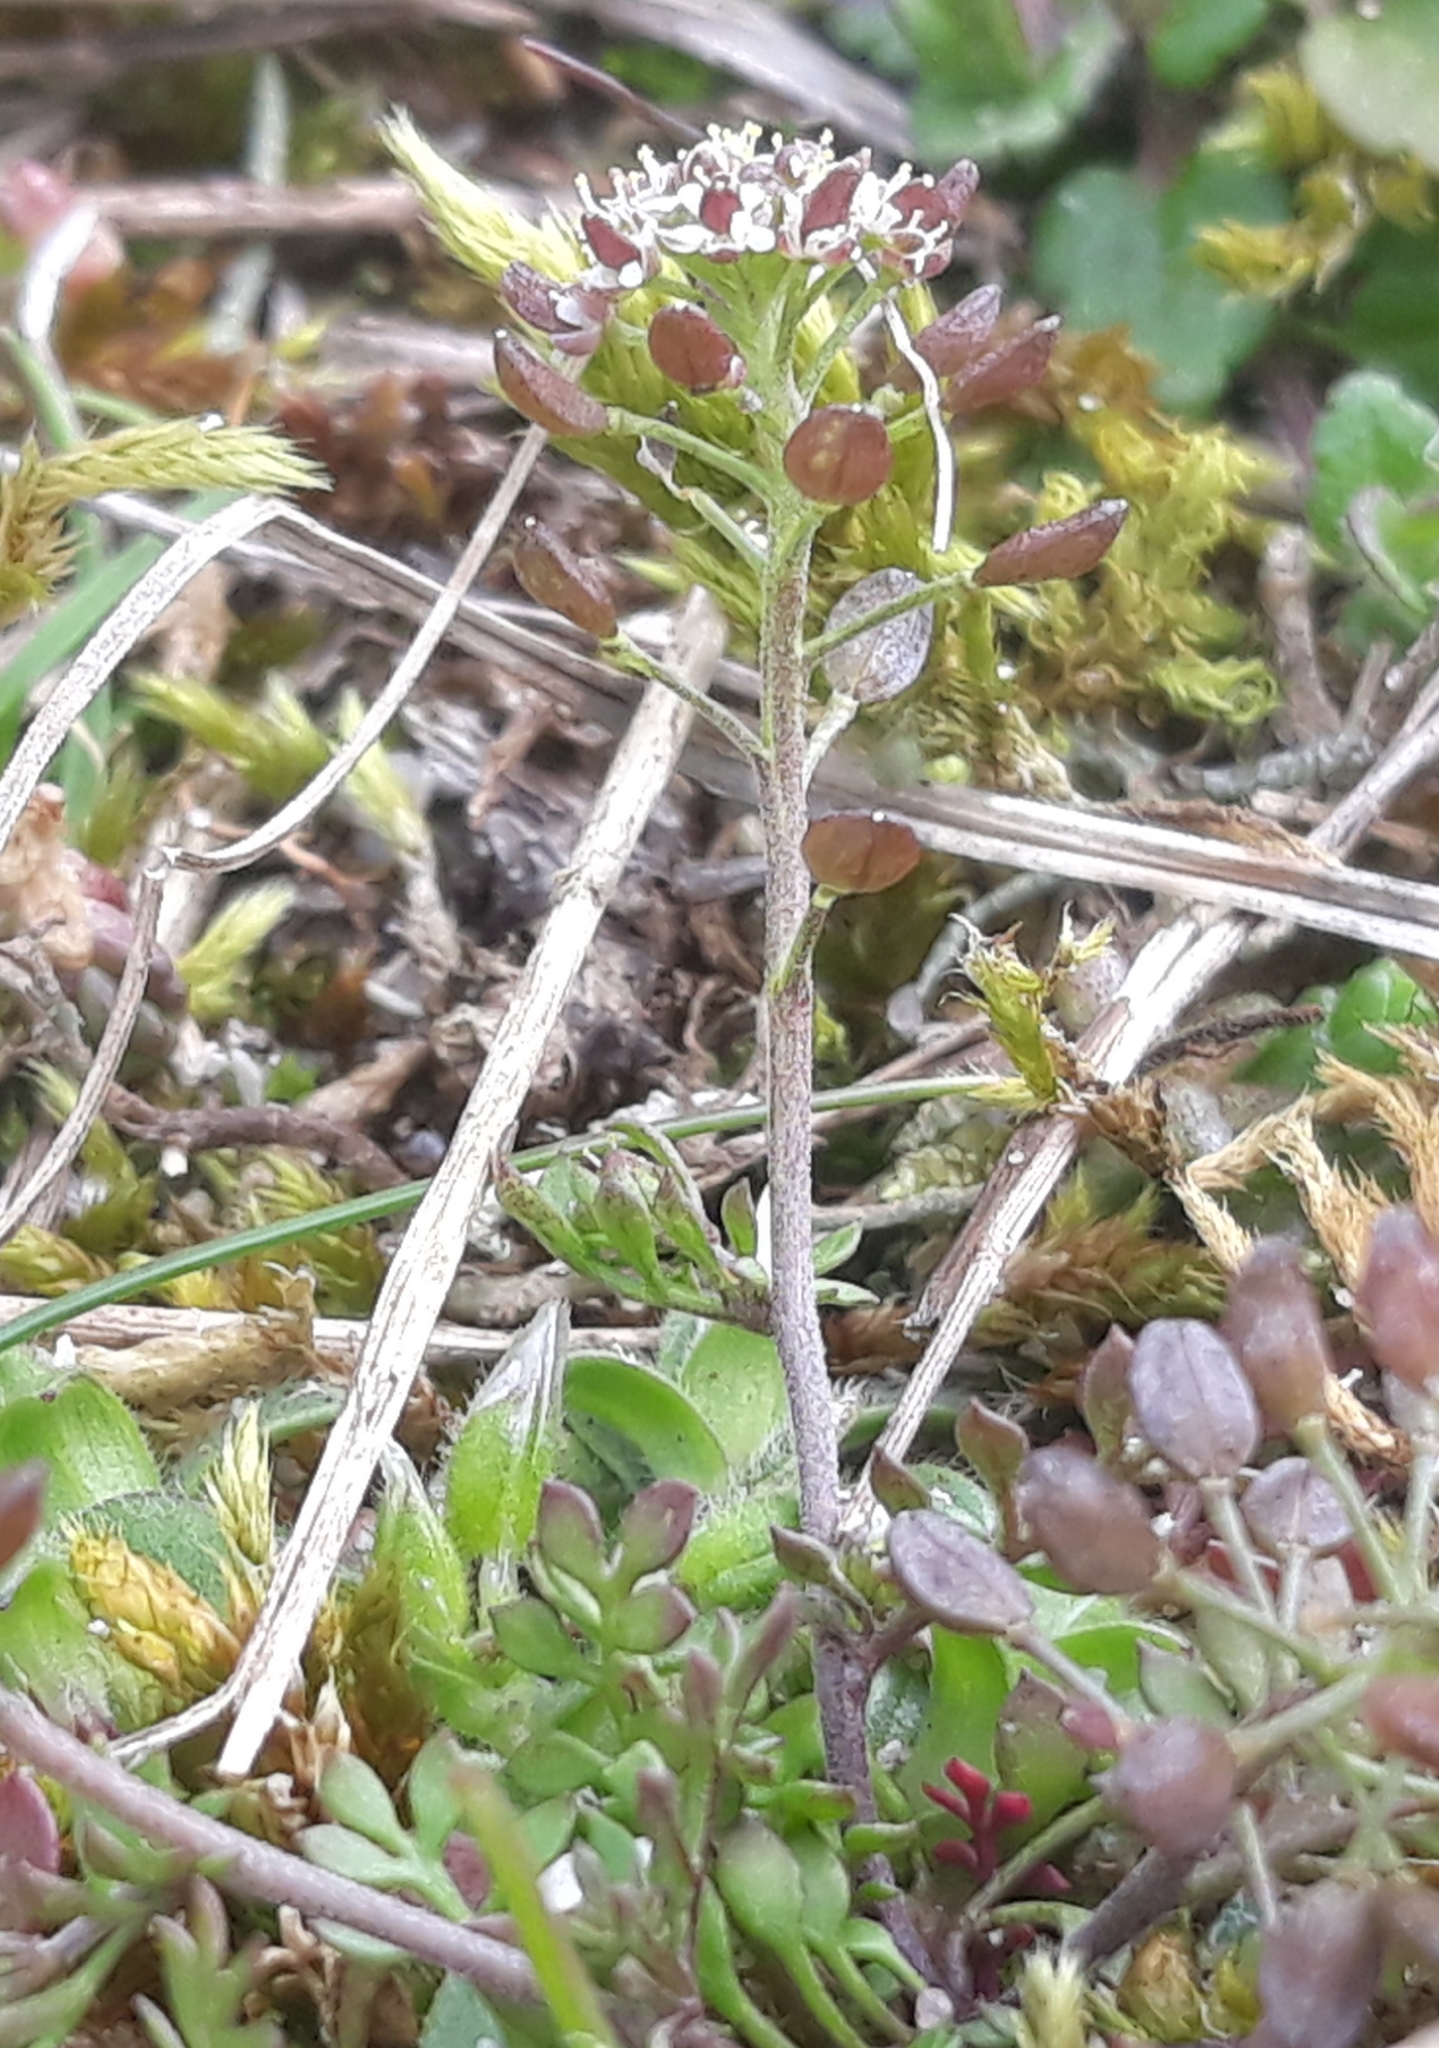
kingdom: Plantae
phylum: Tracheophyta
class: Magnoliopsida
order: Brassicales
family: Brassicaceae
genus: Hornungia
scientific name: Hornungia petraea
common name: Hutchinsia
